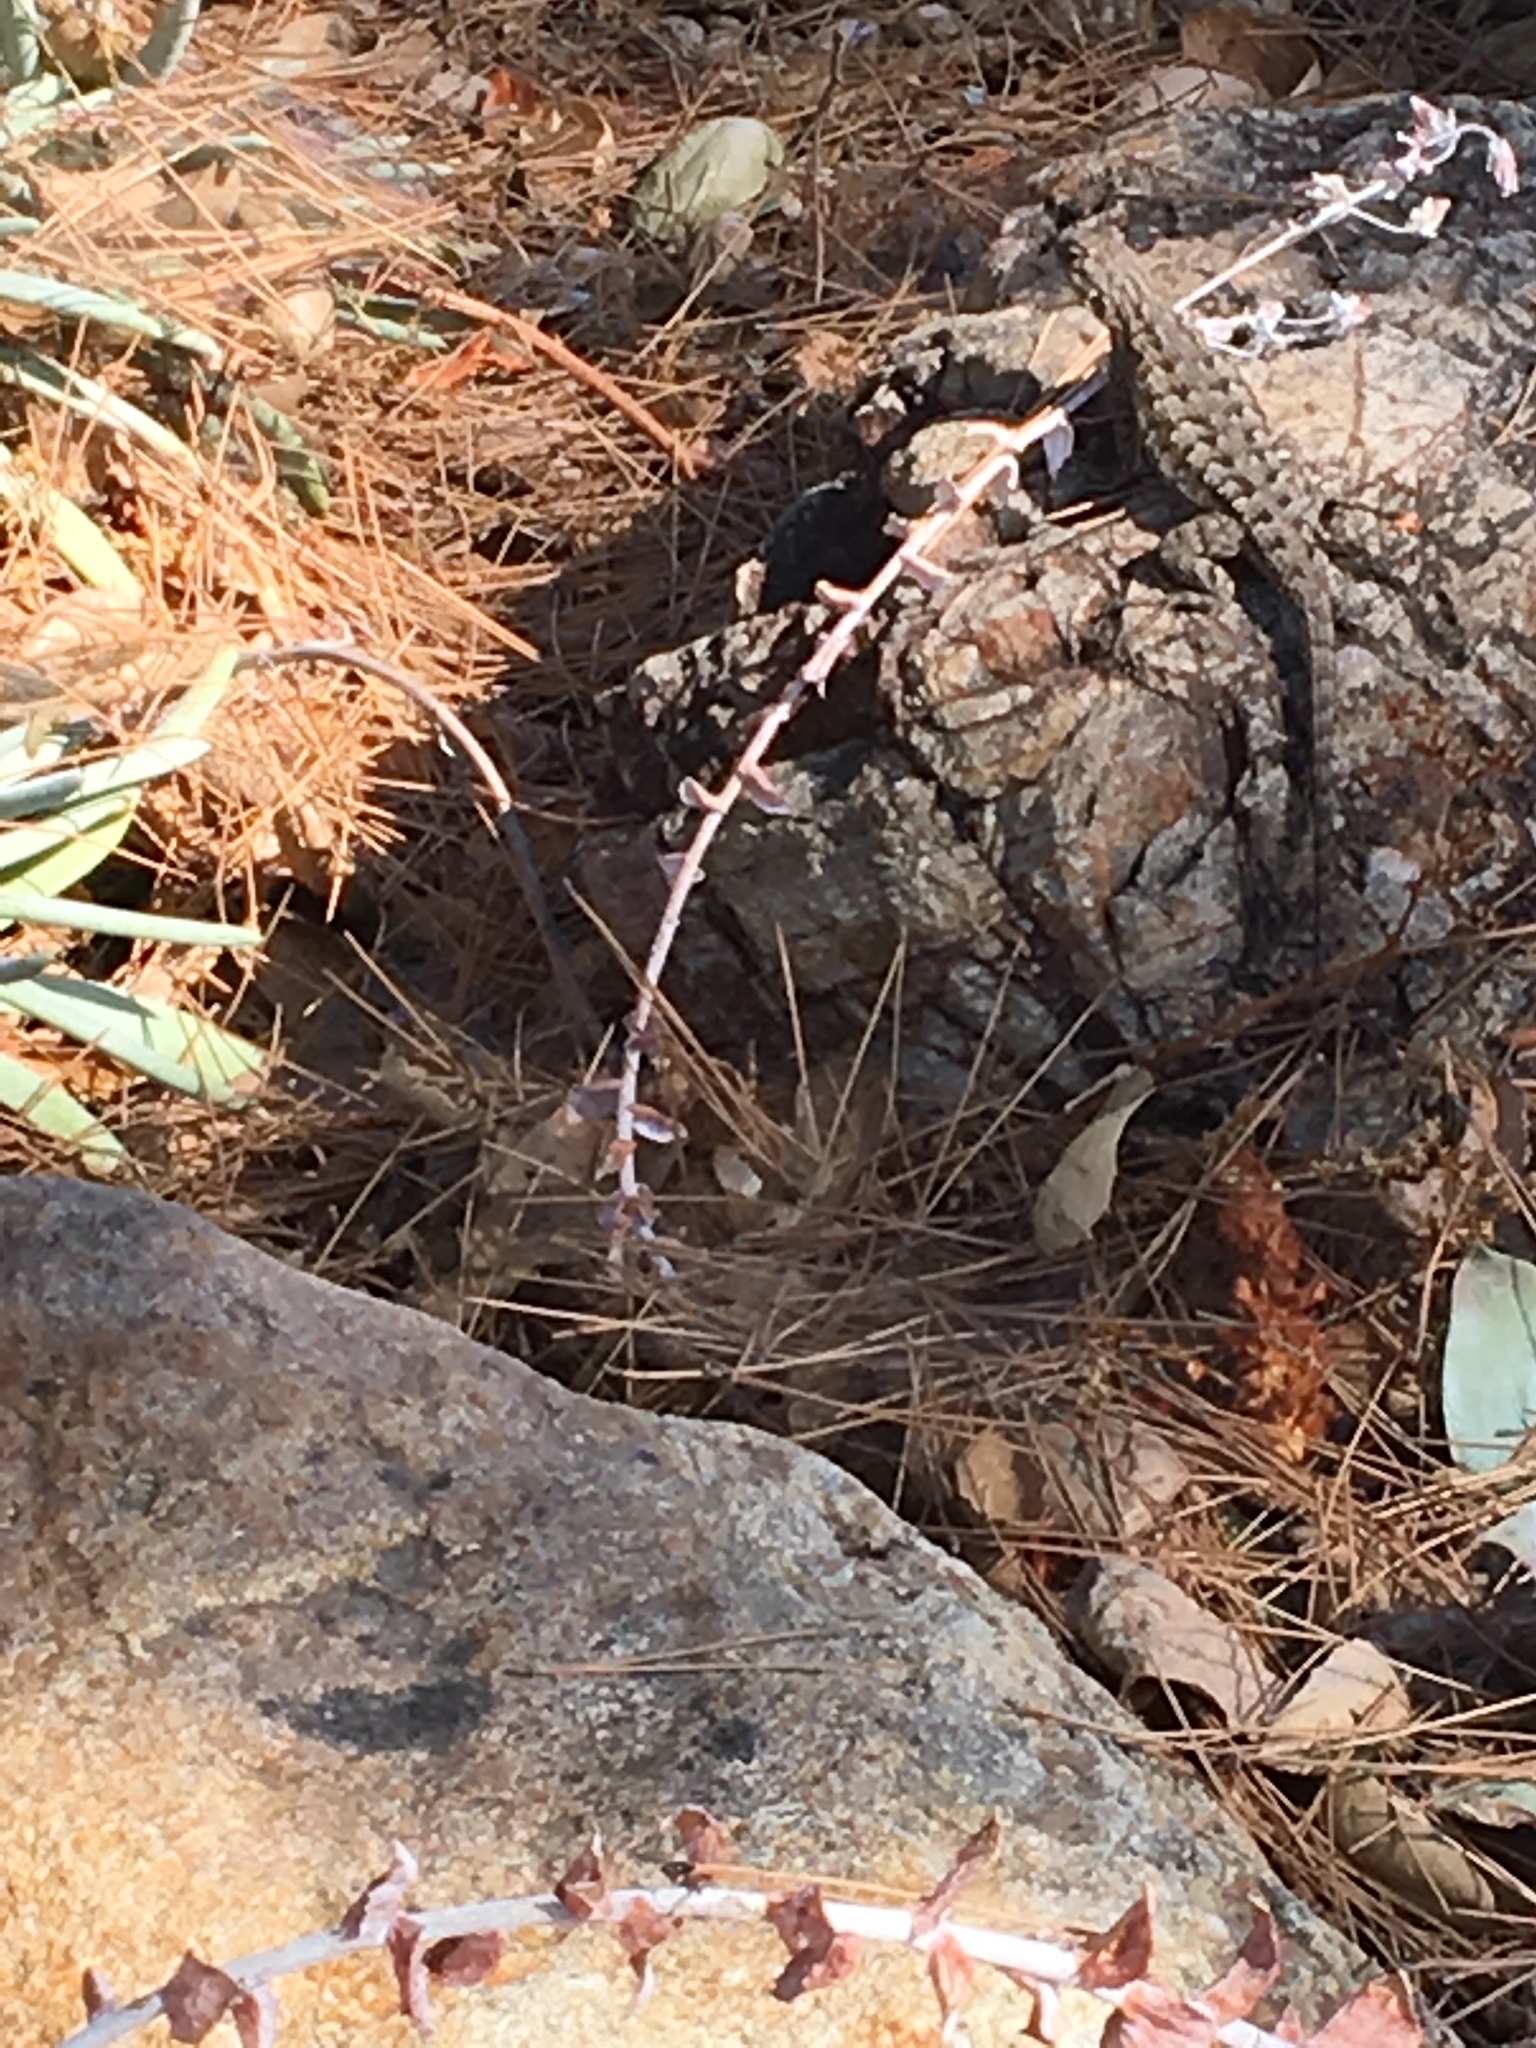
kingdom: Animalia
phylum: Chordata
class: Squamata
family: Phrynosomatidae
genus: Sceloporus
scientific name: Sceloporus occidentalis
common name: Western fence lizard
